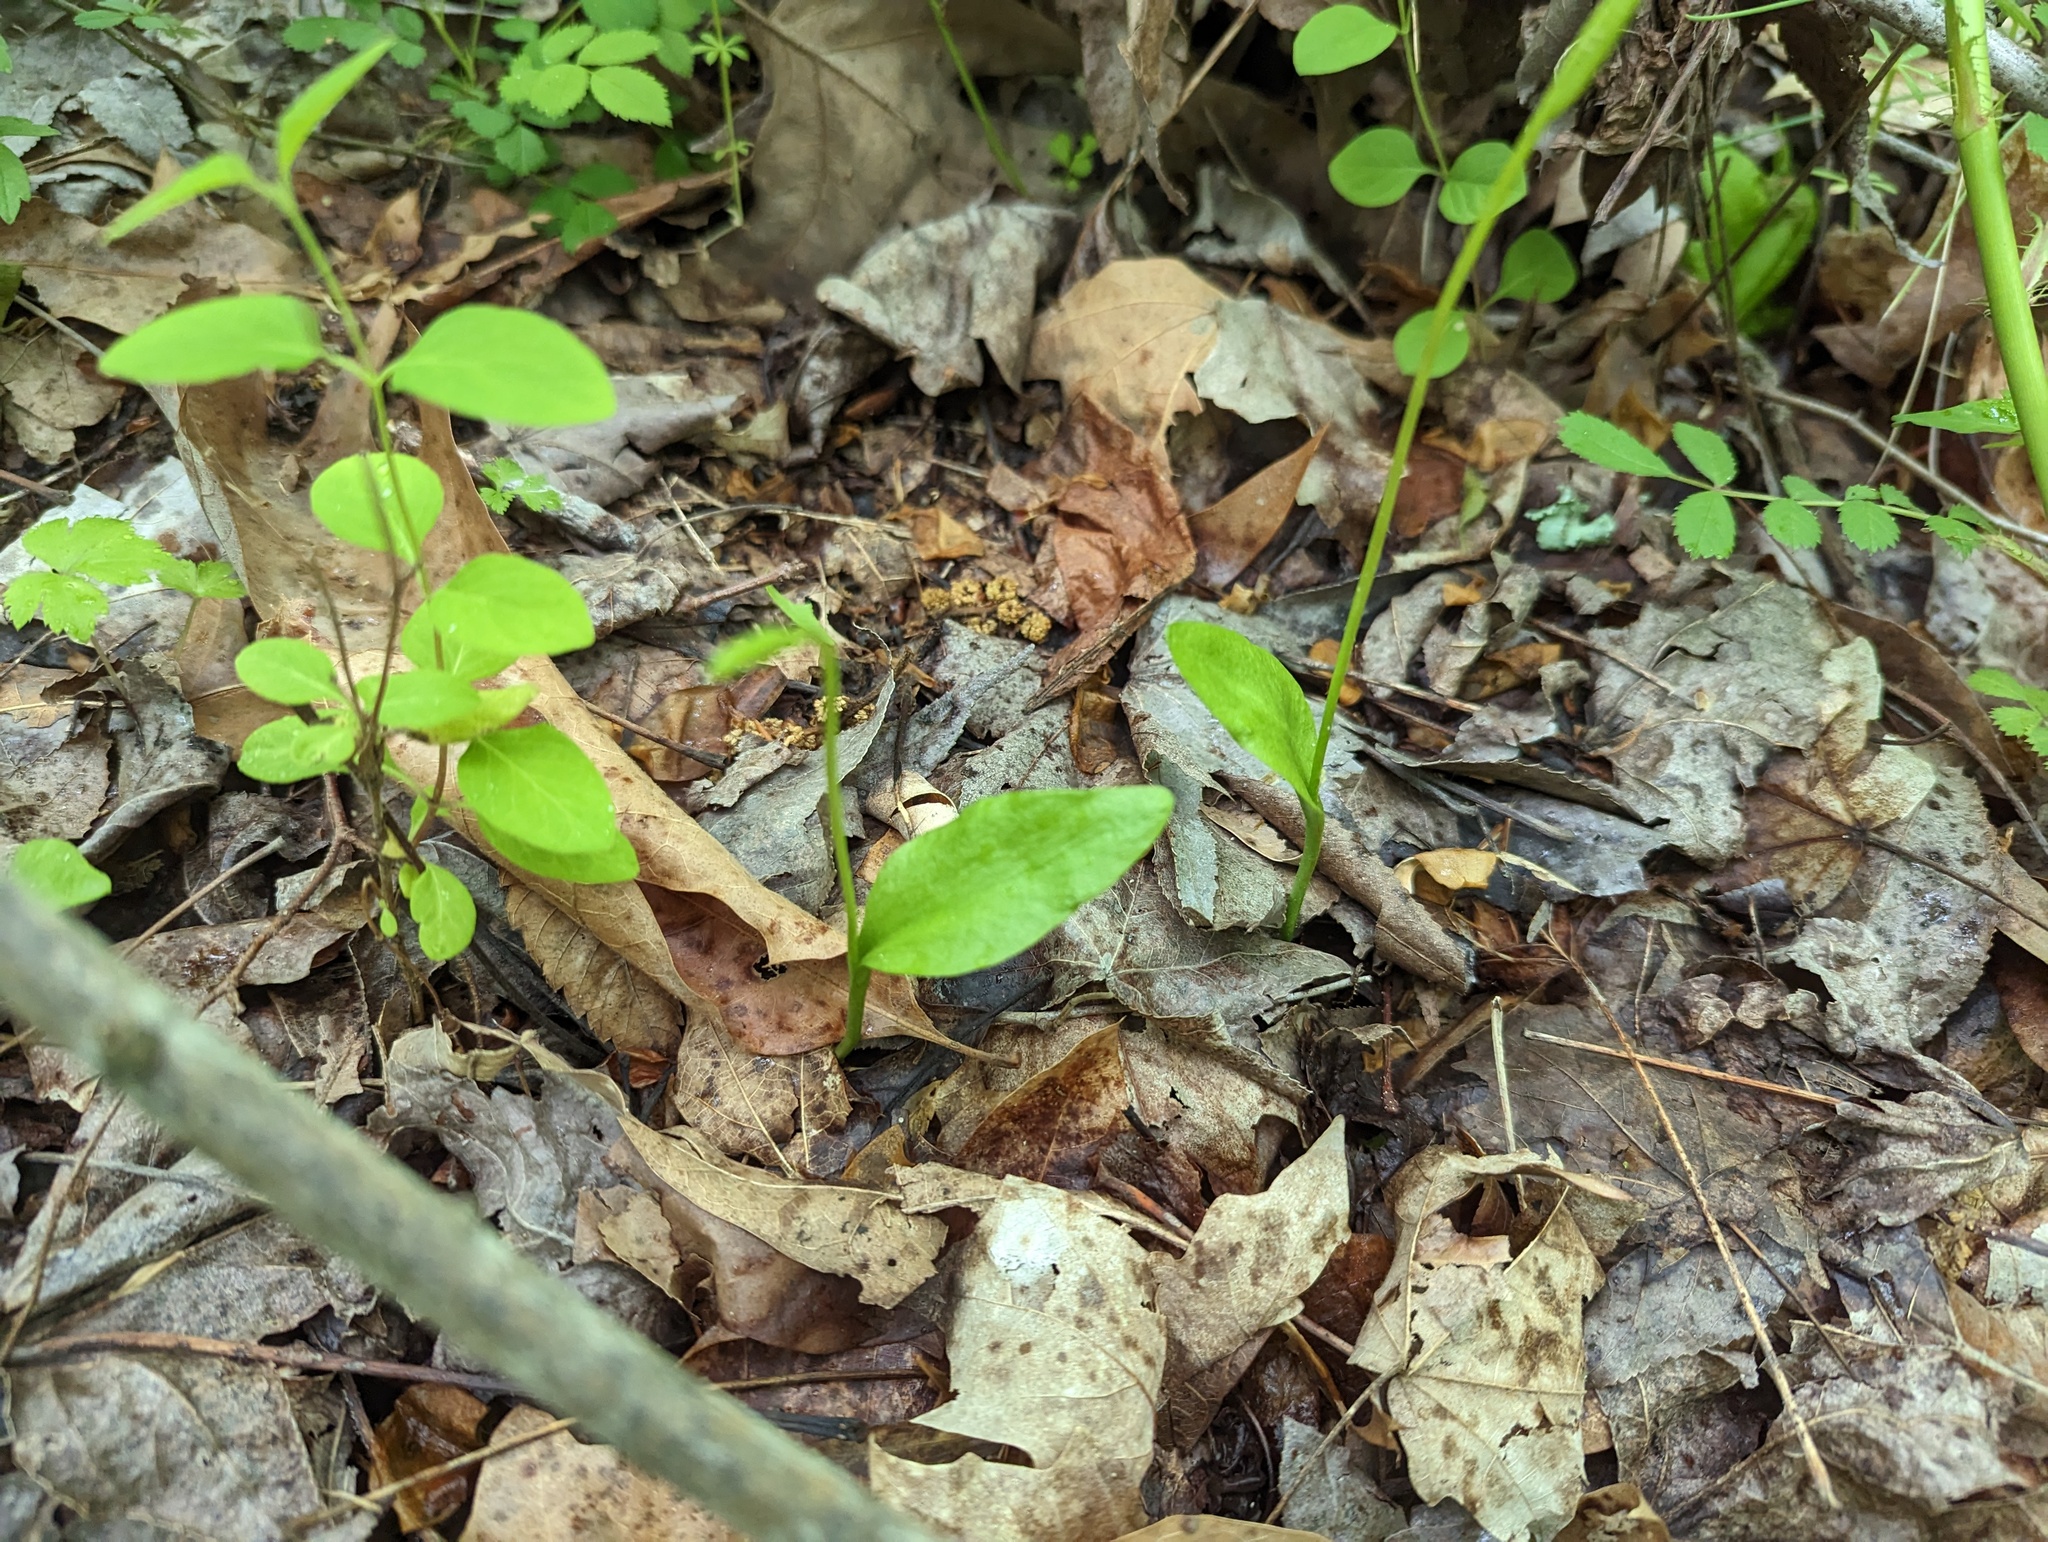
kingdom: Plantae
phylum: Tracheophyta
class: Polypodiopsida
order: Ophioglossales
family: Ophioglossaceae
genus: Ophioglossum
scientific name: Ophioglossum vulgatum
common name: Adder's-tongue
